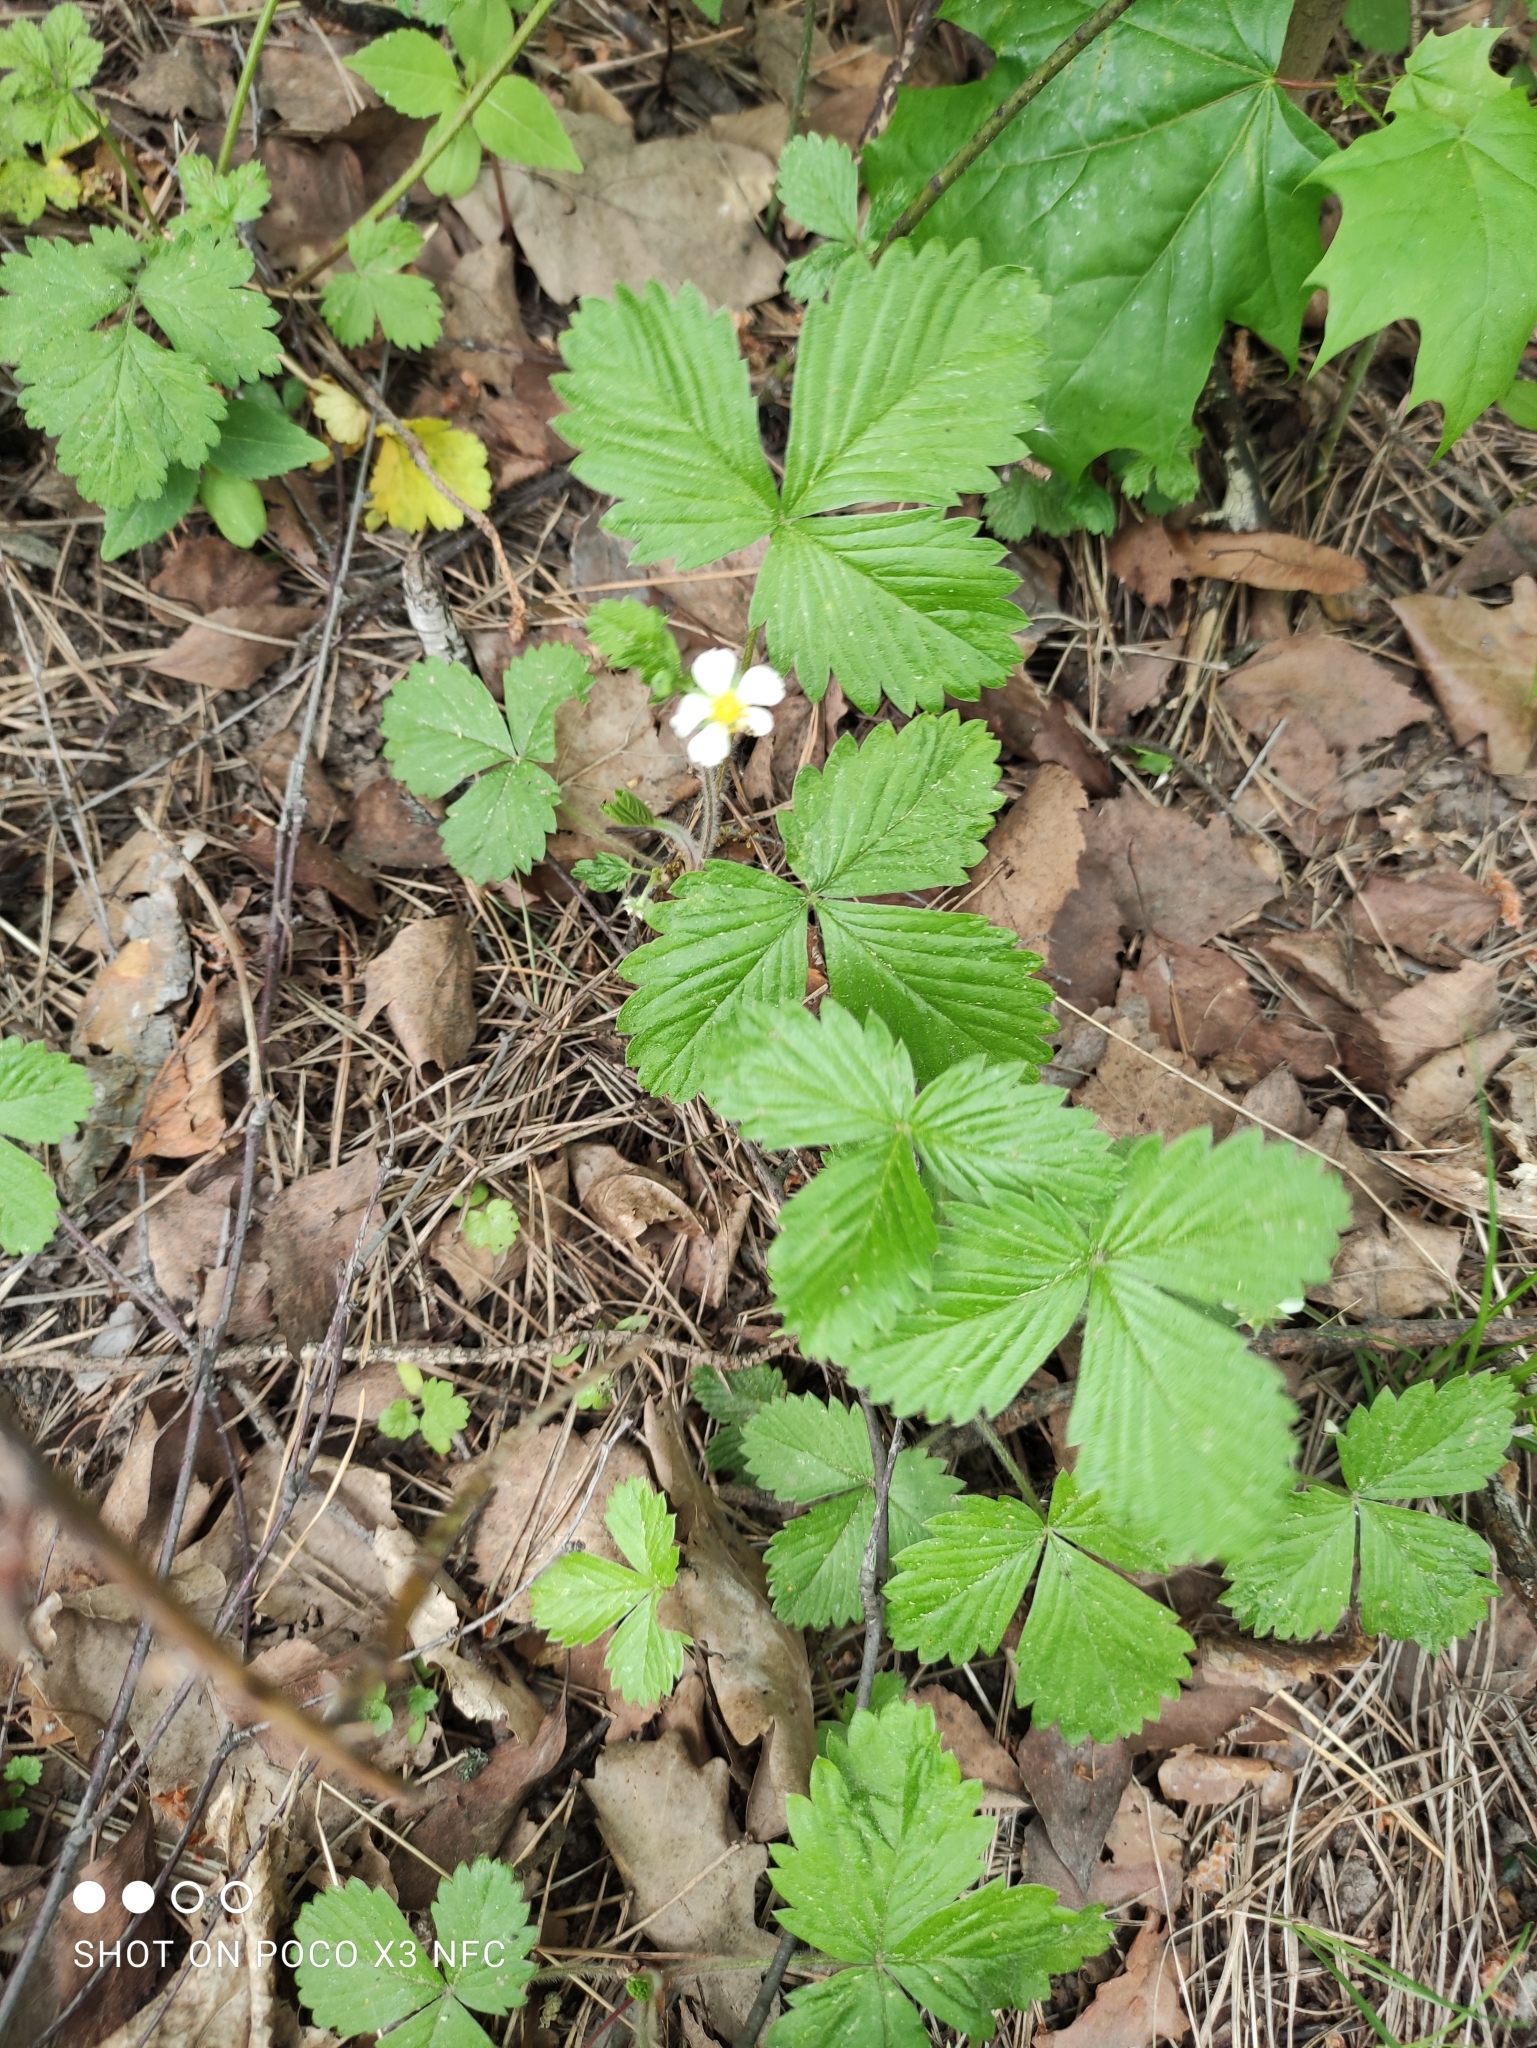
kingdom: Plantae
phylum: Tracheophyta
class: Magnoliopsida
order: Rosales
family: Rosaceae
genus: Fragaria
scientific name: Fragaria vesca
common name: Wild strawberry
